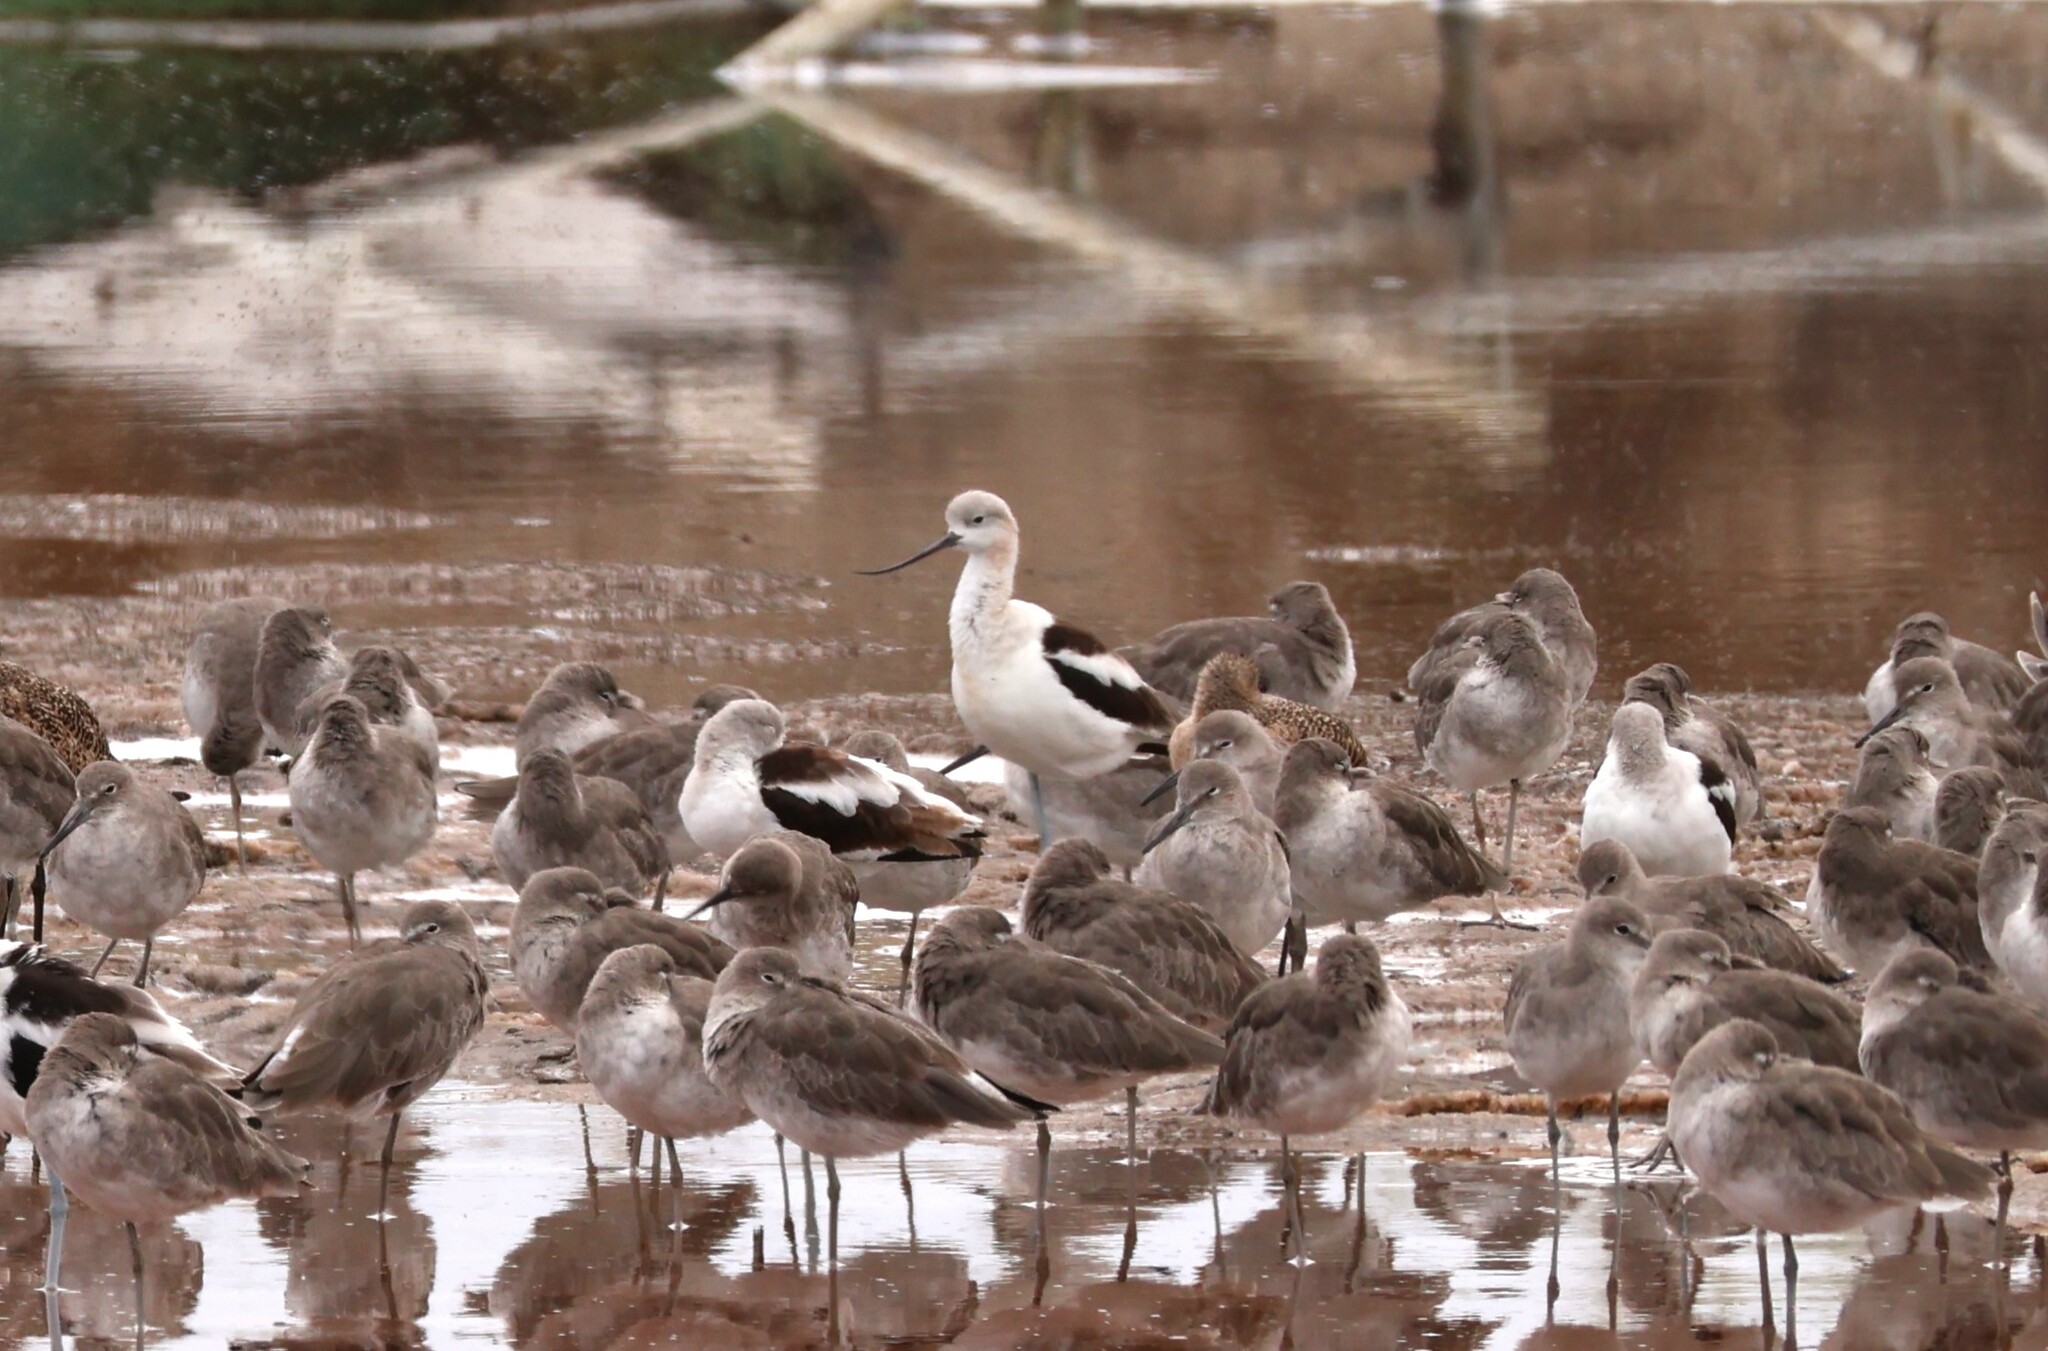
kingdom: Animalia
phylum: Chordata
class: Aves
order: Charadriiformes
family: Recurvirostridae
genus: Recurvirostra
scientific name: Recurvirostra americana
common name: American avocet
